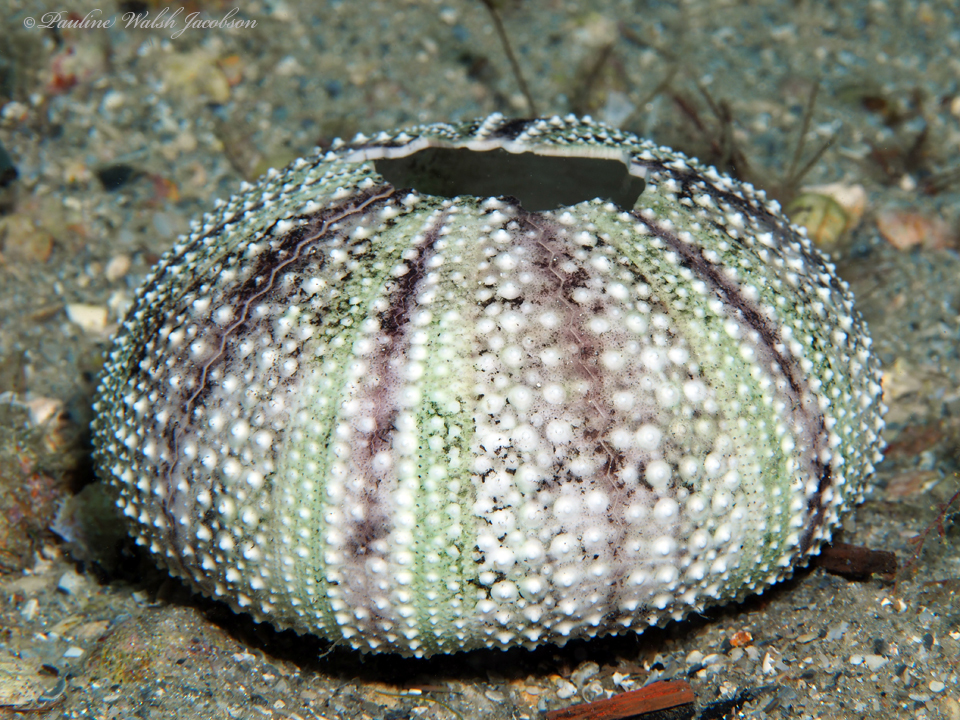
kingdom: Animalia
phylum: Echinodermata
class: Echinoidea
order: Camarodonta
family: Toxopneustidae
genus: Lytechinus
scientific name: Lytechinus variegatus
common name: Variegated urchin
